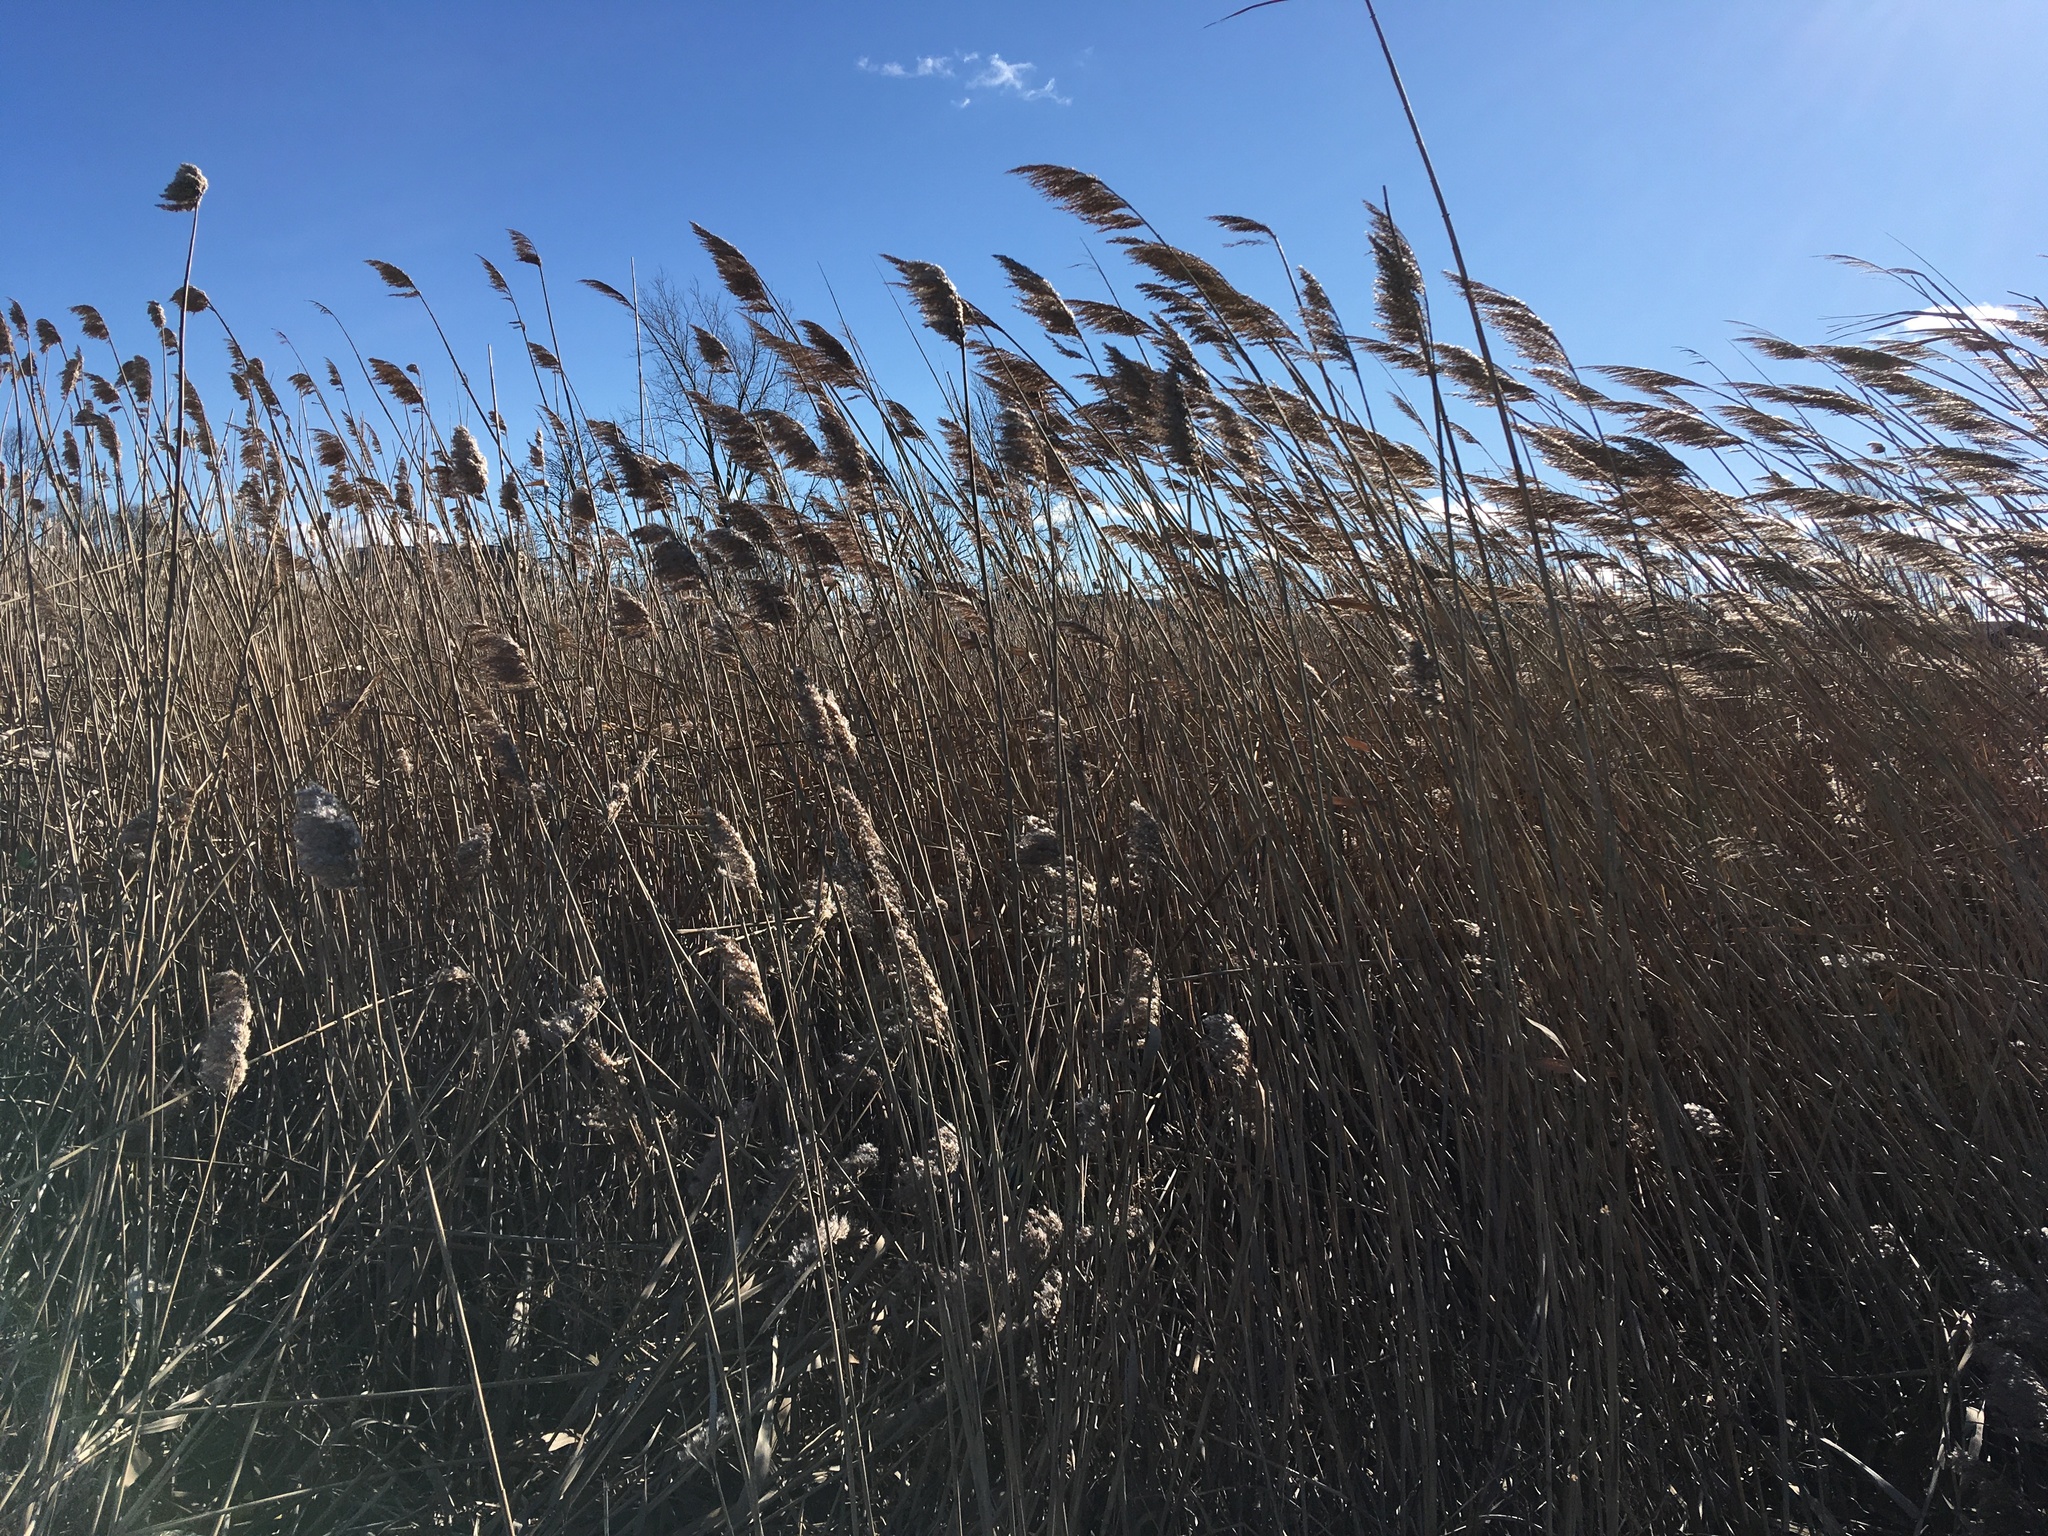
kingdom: Plantae
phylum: Tracheophyta
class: Liliopsida
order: Poales
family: Poaceae
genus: Phragmites
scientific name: Phragmites australis
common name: Common reed
